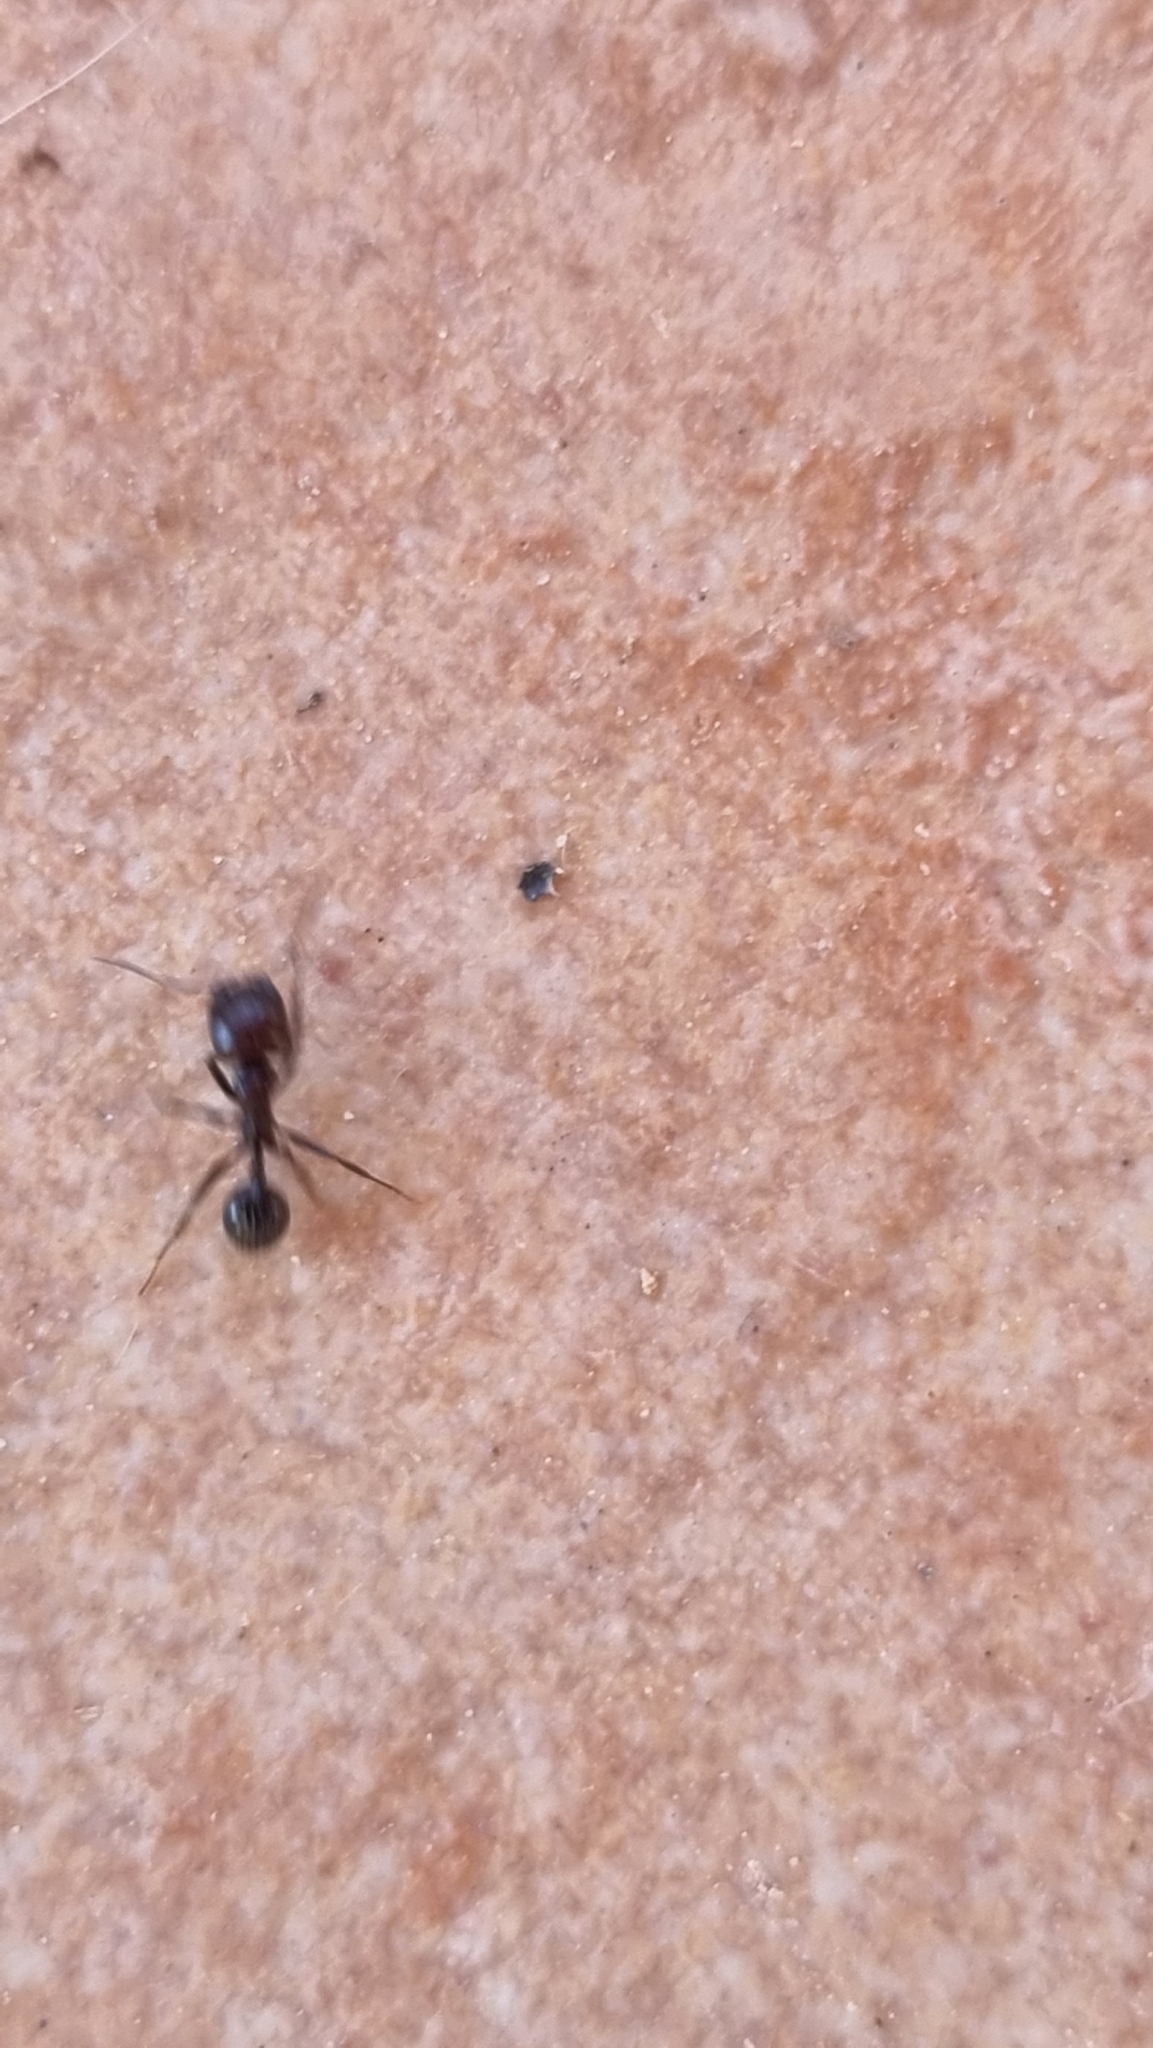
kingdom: Animalia
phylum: Arthropoda
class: Insecta
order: Hymenoptera
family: Formicidae
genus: Messor
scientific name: Messor barbarus
